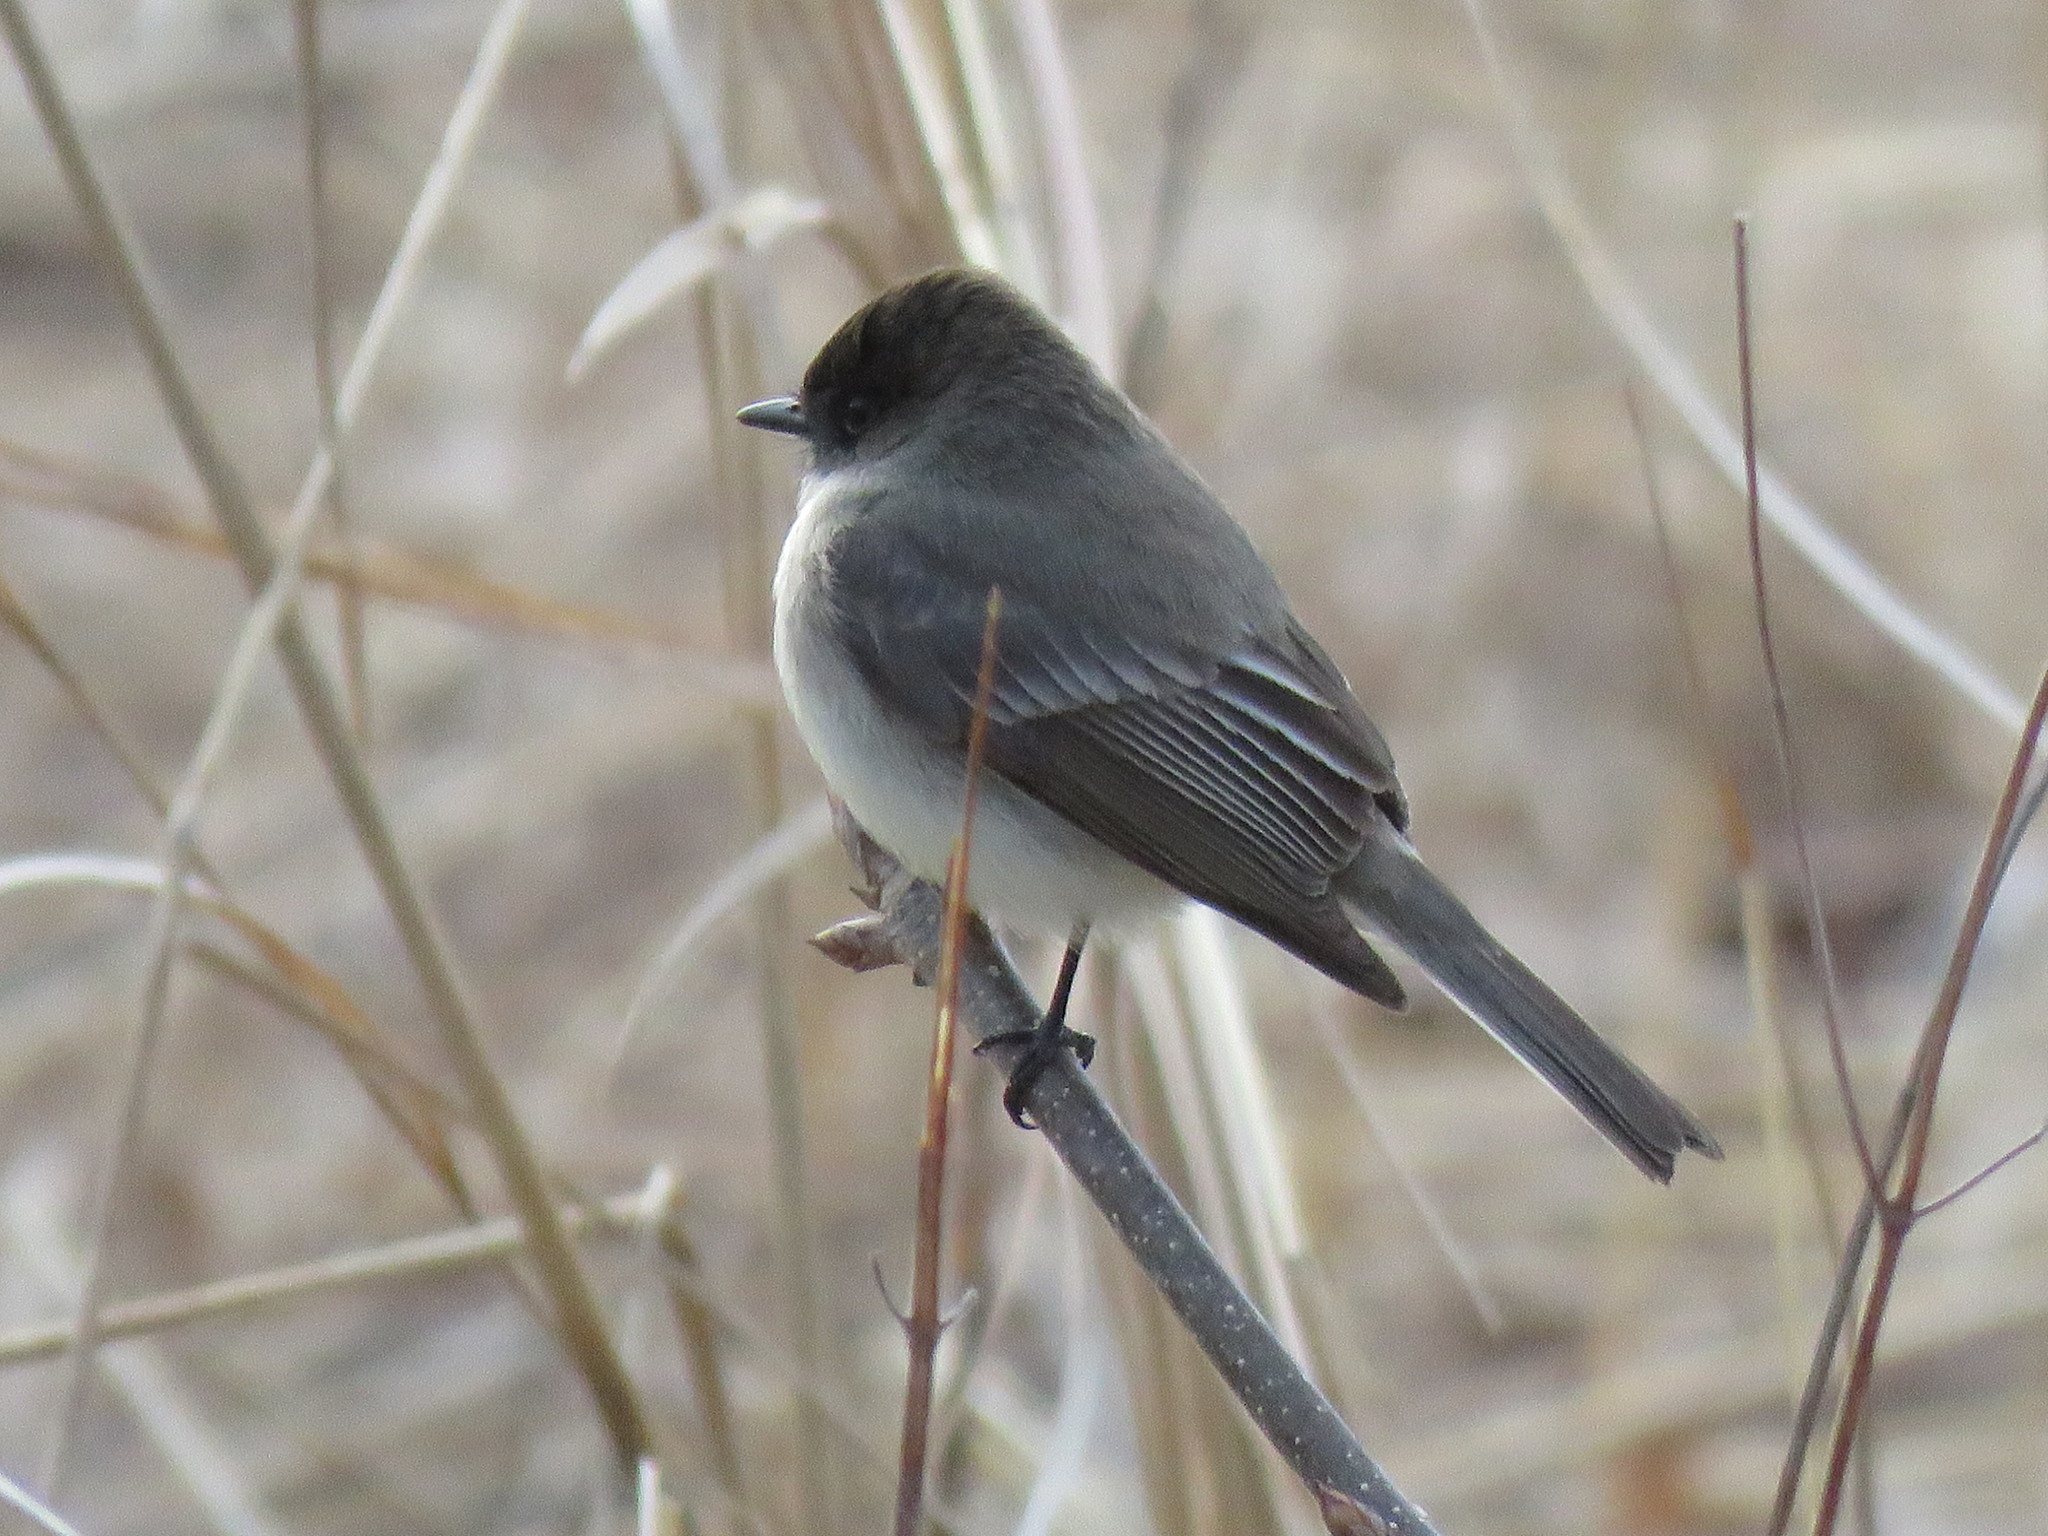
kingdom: Animalia
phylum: Chordata
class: Aves
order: Passeriformes
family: Tyrannidae
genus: Sayornis
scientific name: Sayornis phoebe
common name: Eastern phoebe
